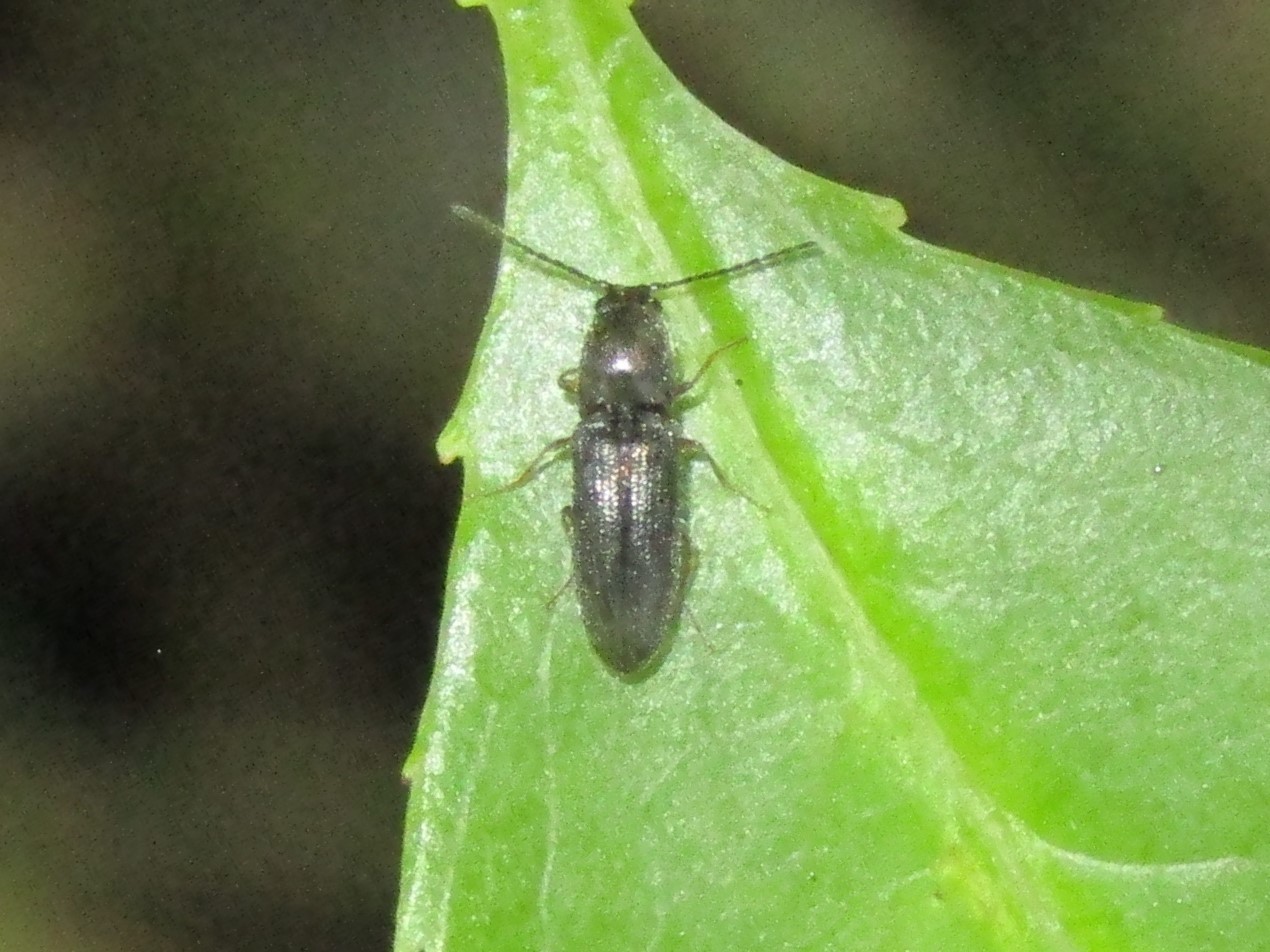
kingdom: Animalia
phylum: Arthropoda
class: Insecta
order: Coleoptera
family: Elateridae
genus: Limonius
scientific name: Limonius quercinus
